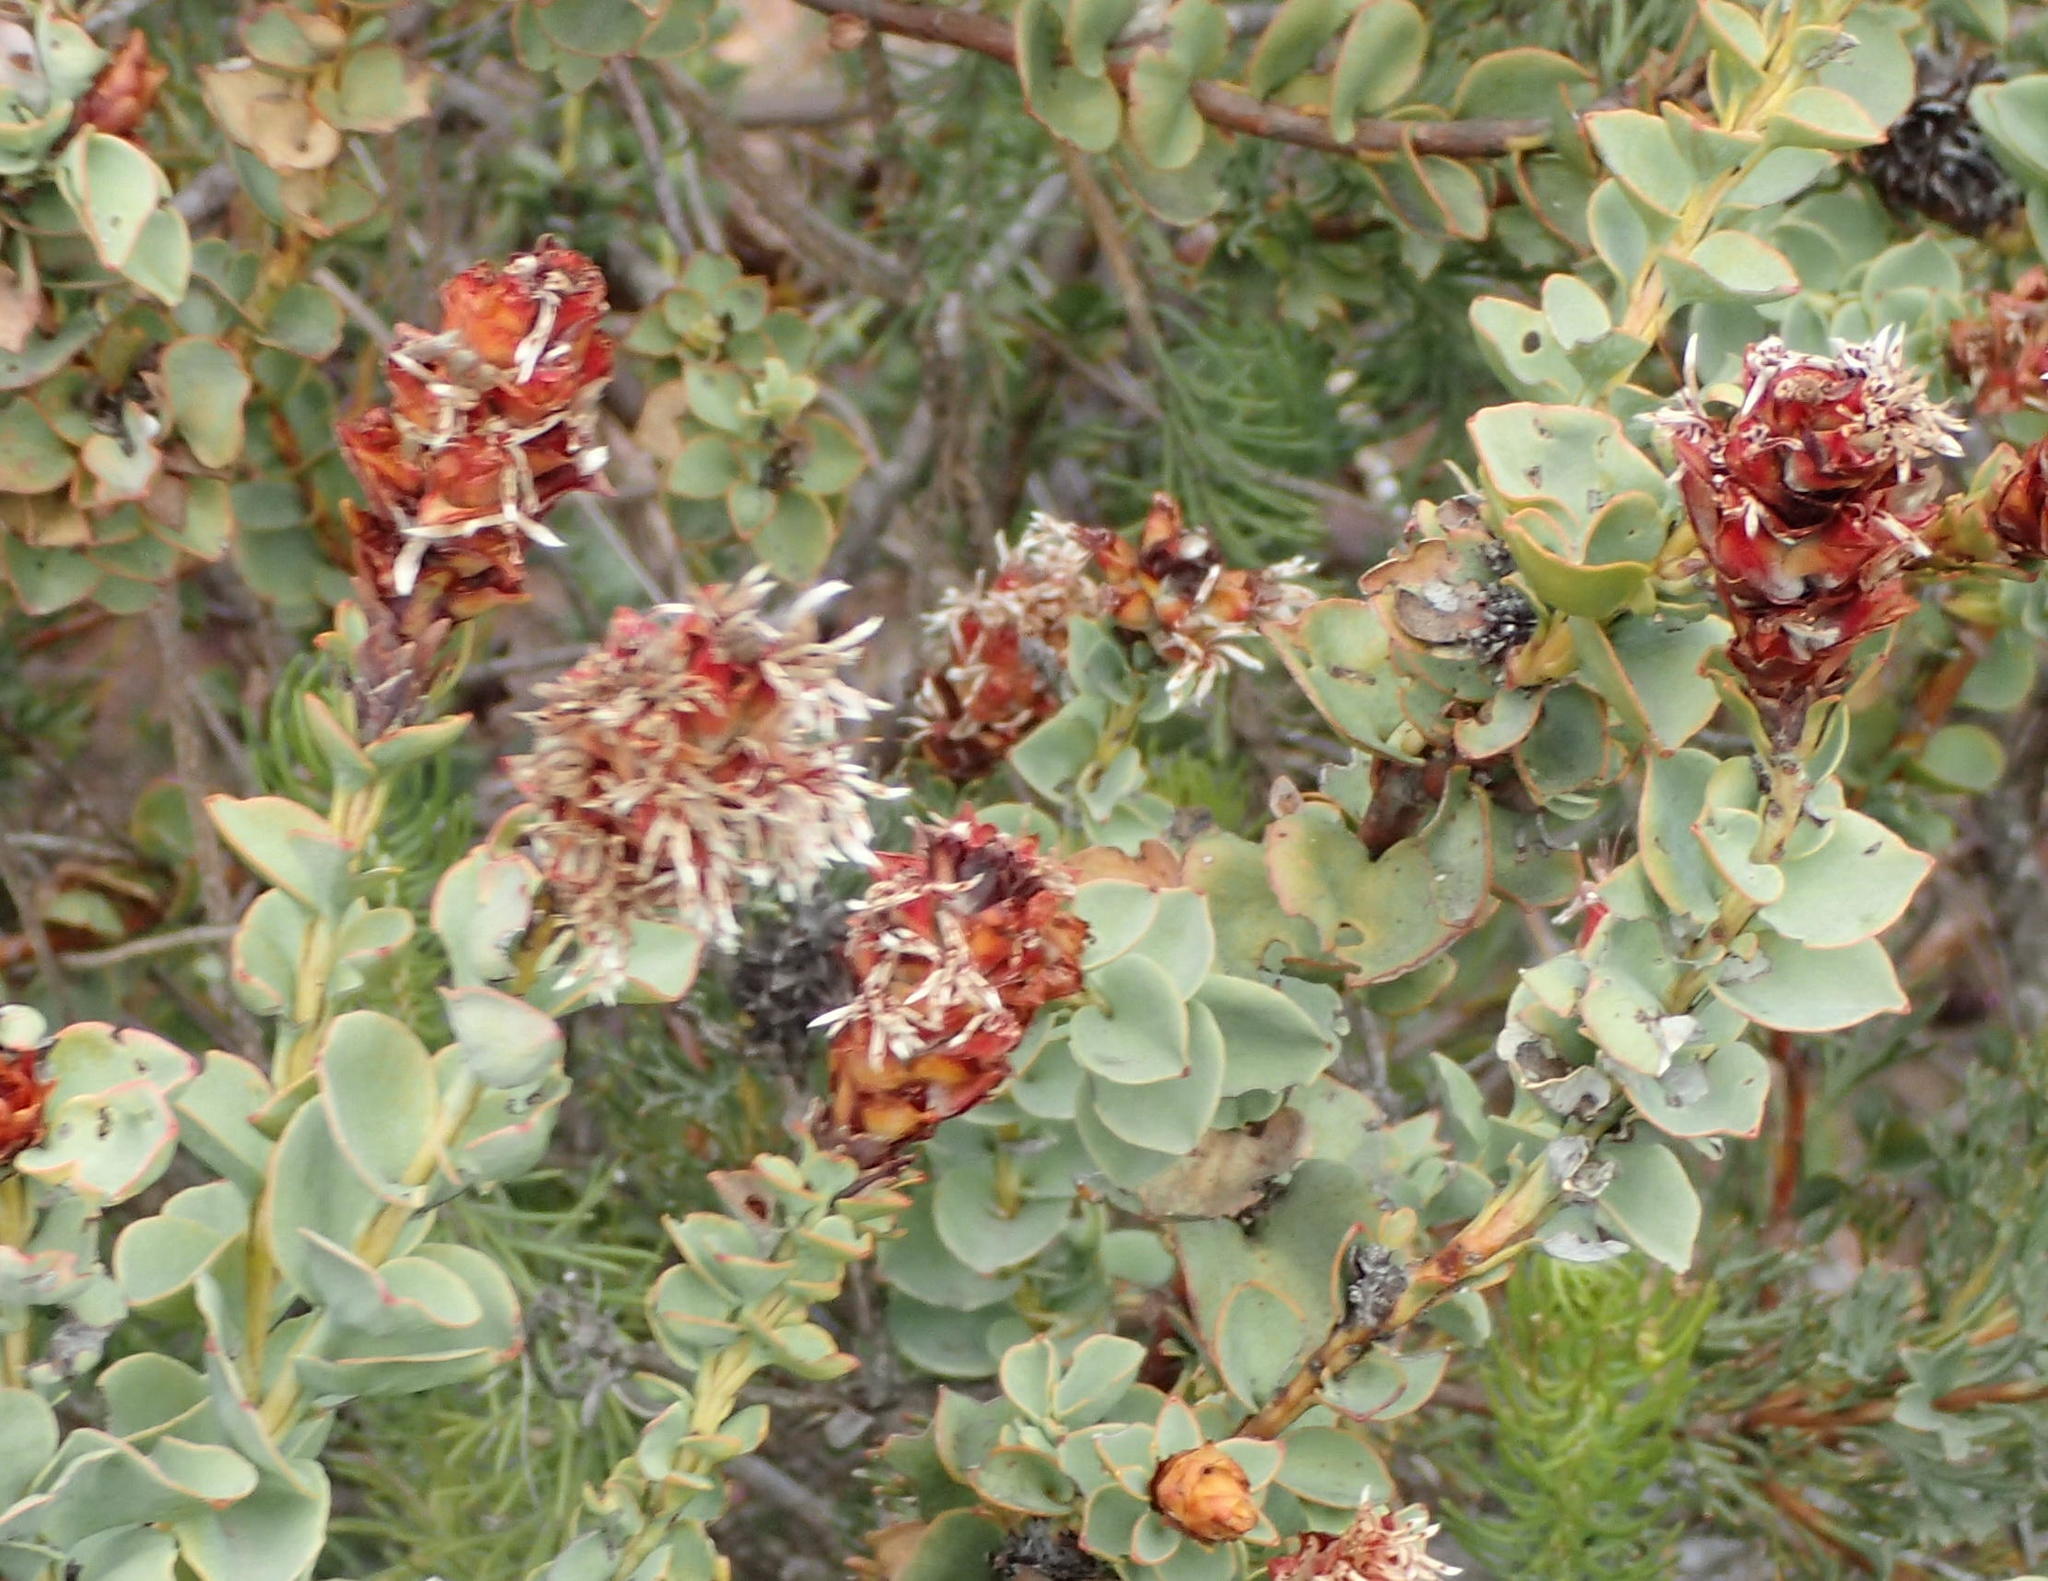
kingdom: Plantae
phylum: Tracheophyta
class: Magnoliopsida
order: Proteales
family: Proteaceae
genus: Paranomus
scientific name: Paranomus roodebergensis
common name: Honey-scented sceptre
